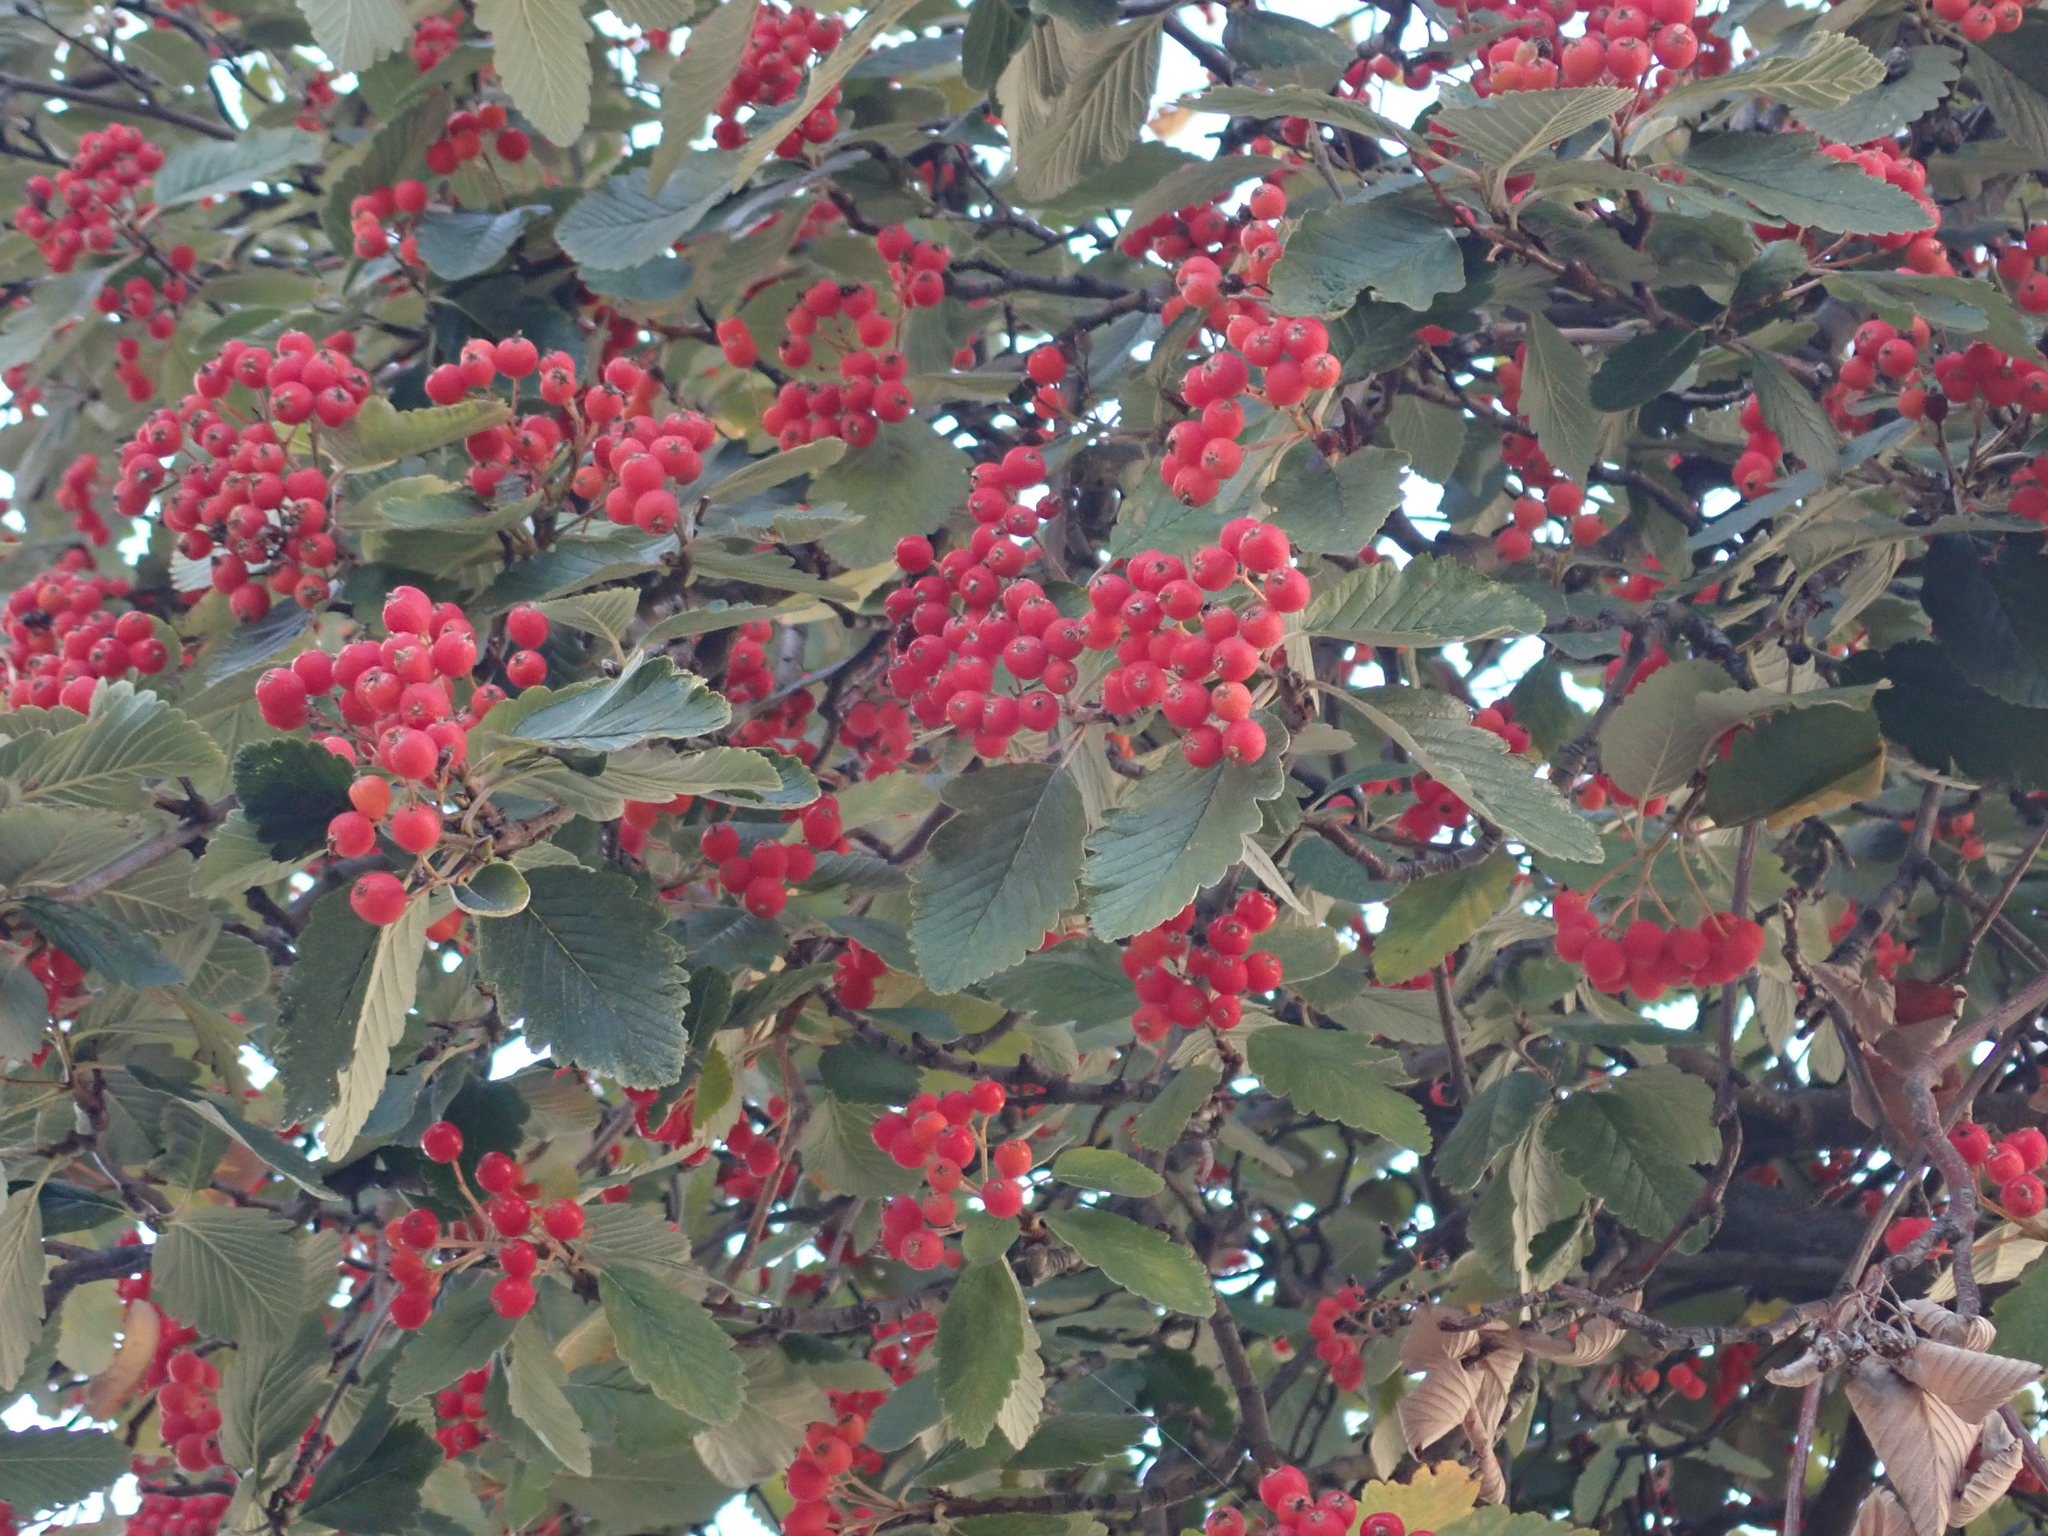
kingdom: Plantae
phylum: Tracheophyta
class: Magnoliopsida
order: Rosales
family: Rosaceae
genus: Scandosorbus
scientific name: Scandosorbus intermedia
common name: Swedish whitebeam
